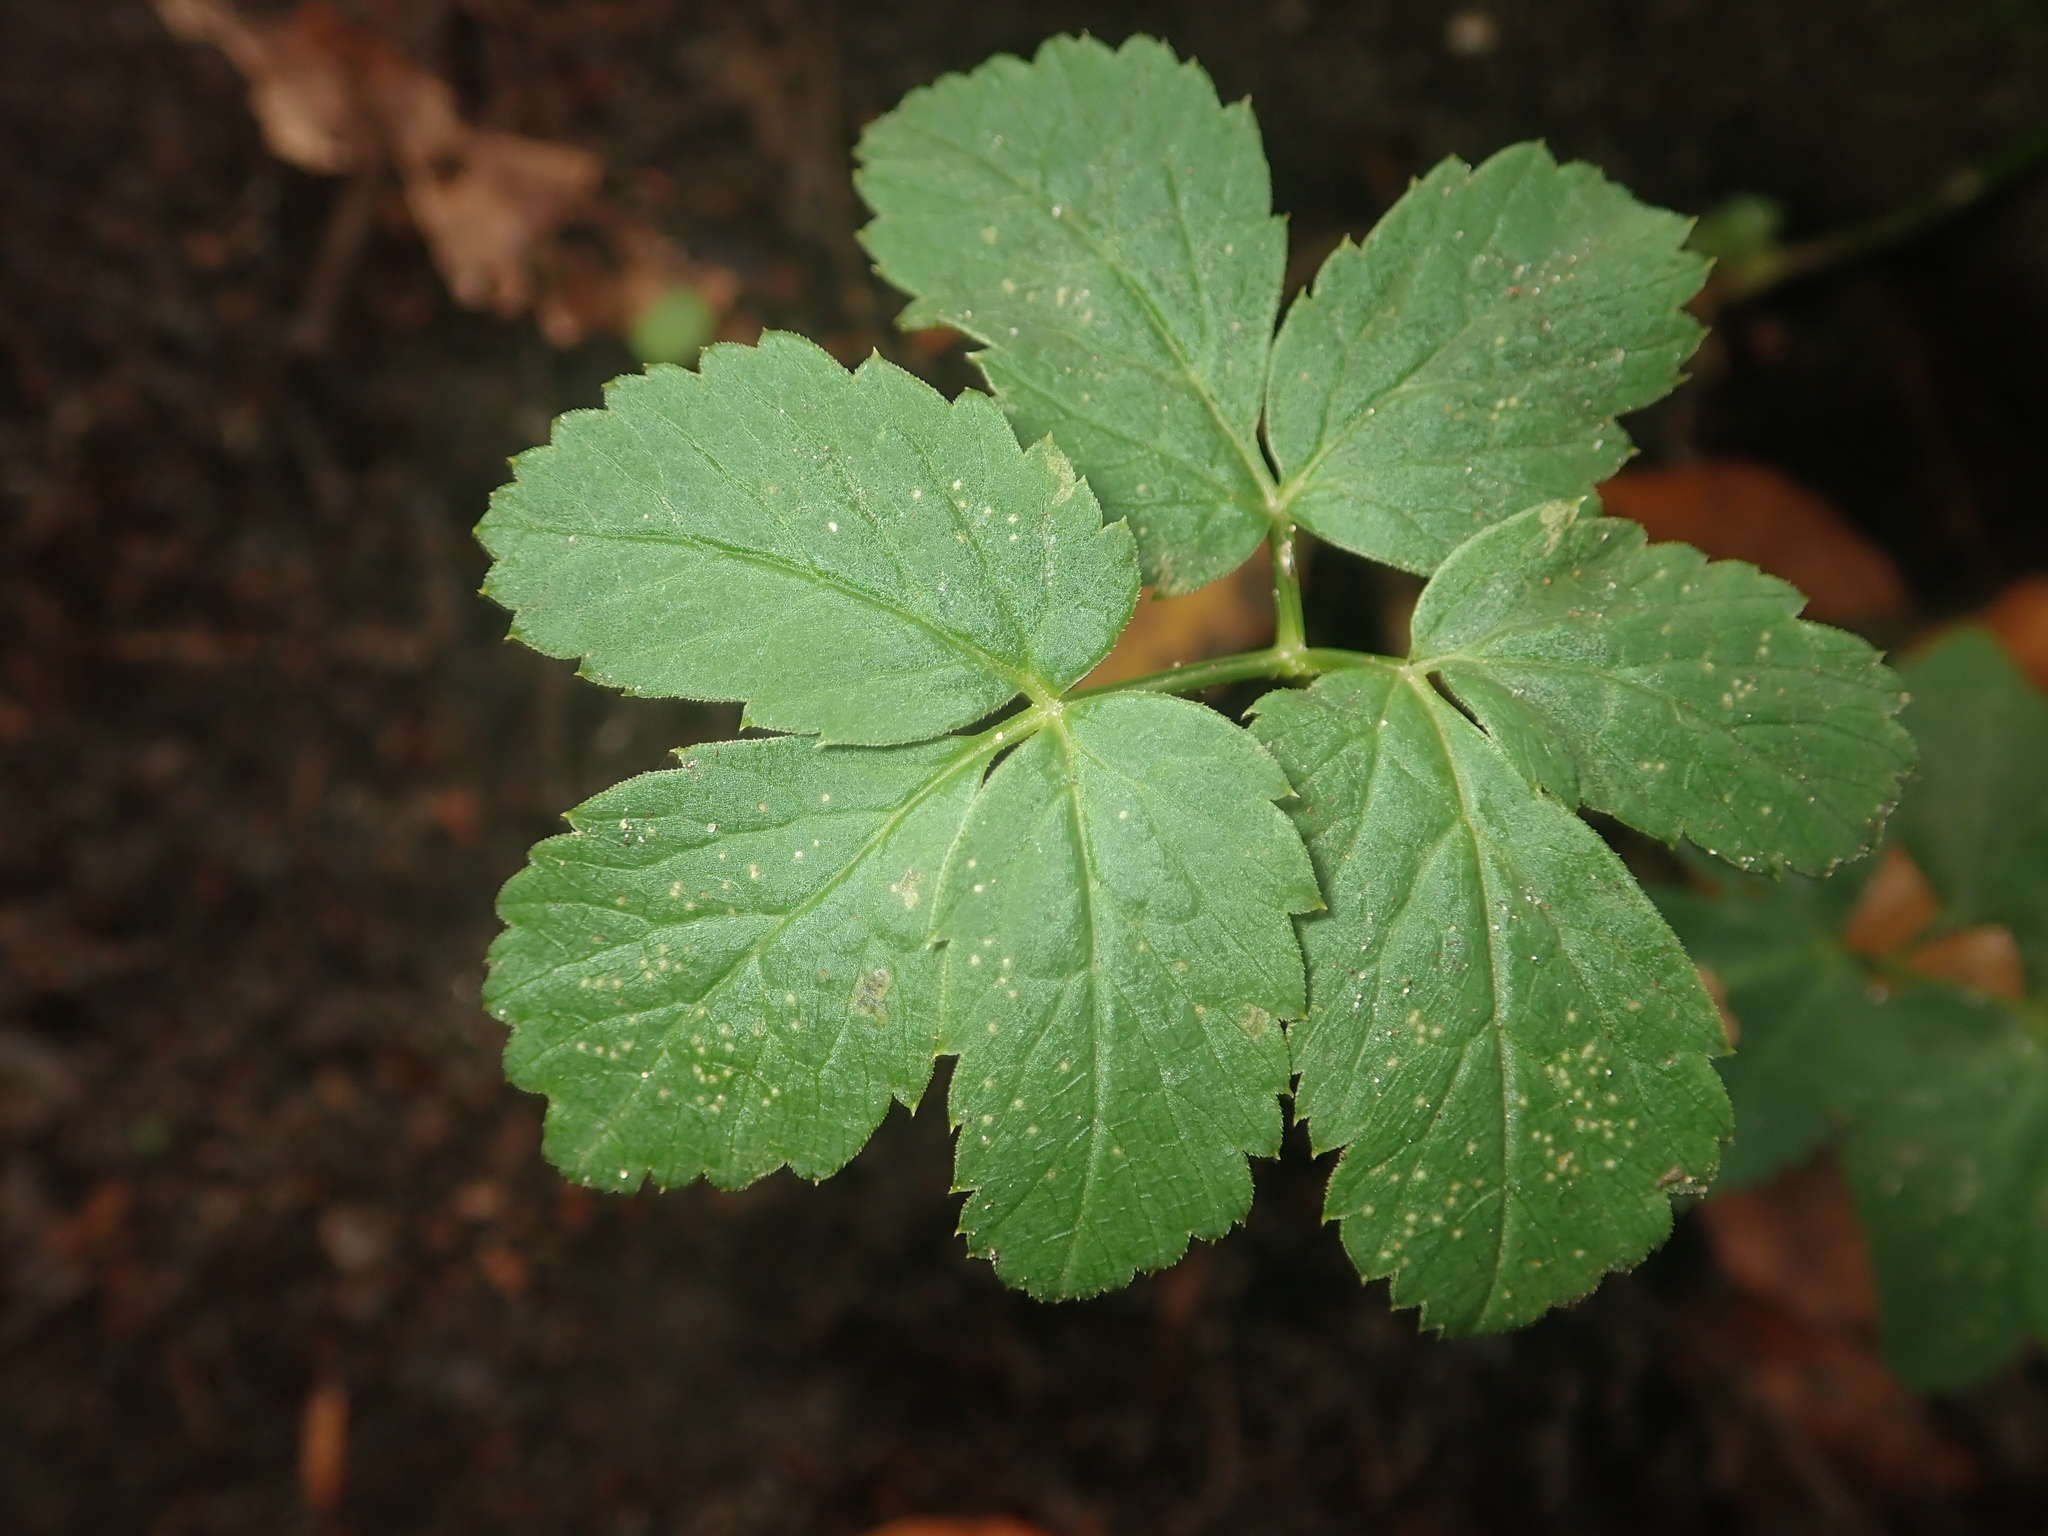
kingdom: Plantae
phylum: Tracheophyta
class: Magnoliopsida
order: Apiales
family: Apiaceae
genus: Aegopodium
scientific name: Aegopodium podagraria
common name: Ground-elder
